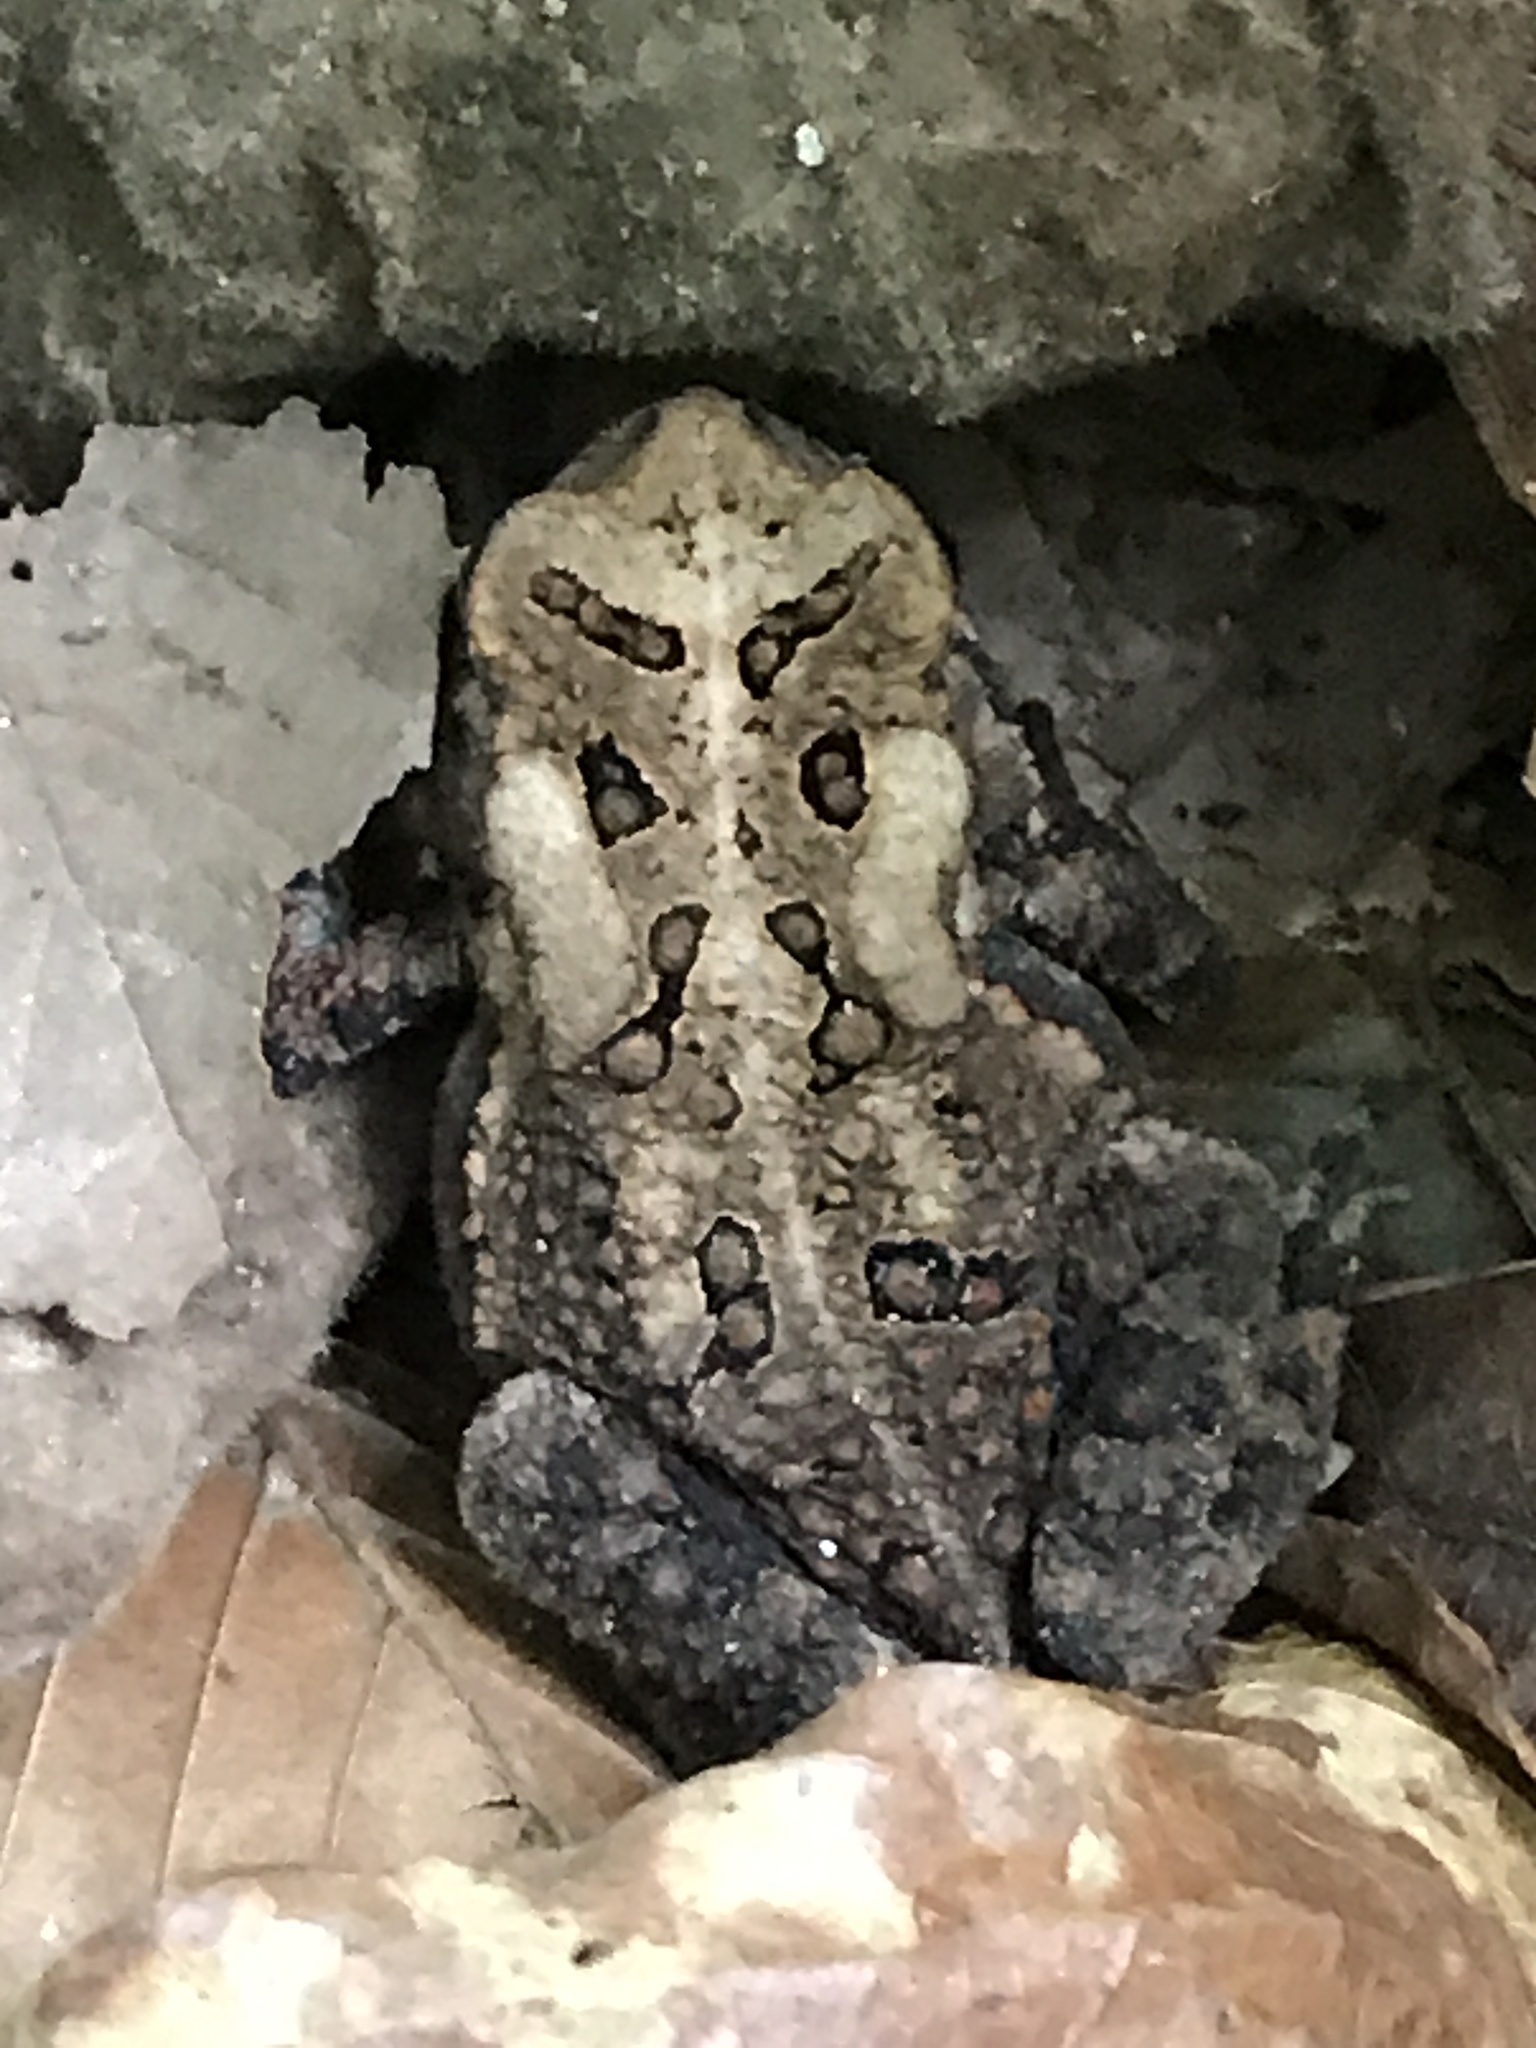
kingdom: Animalia
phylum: Chordata
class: Amphibia
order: Anura
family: Bufonidae
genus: Anaxyrus
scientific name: Anaxyrus americanus
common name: American toad
